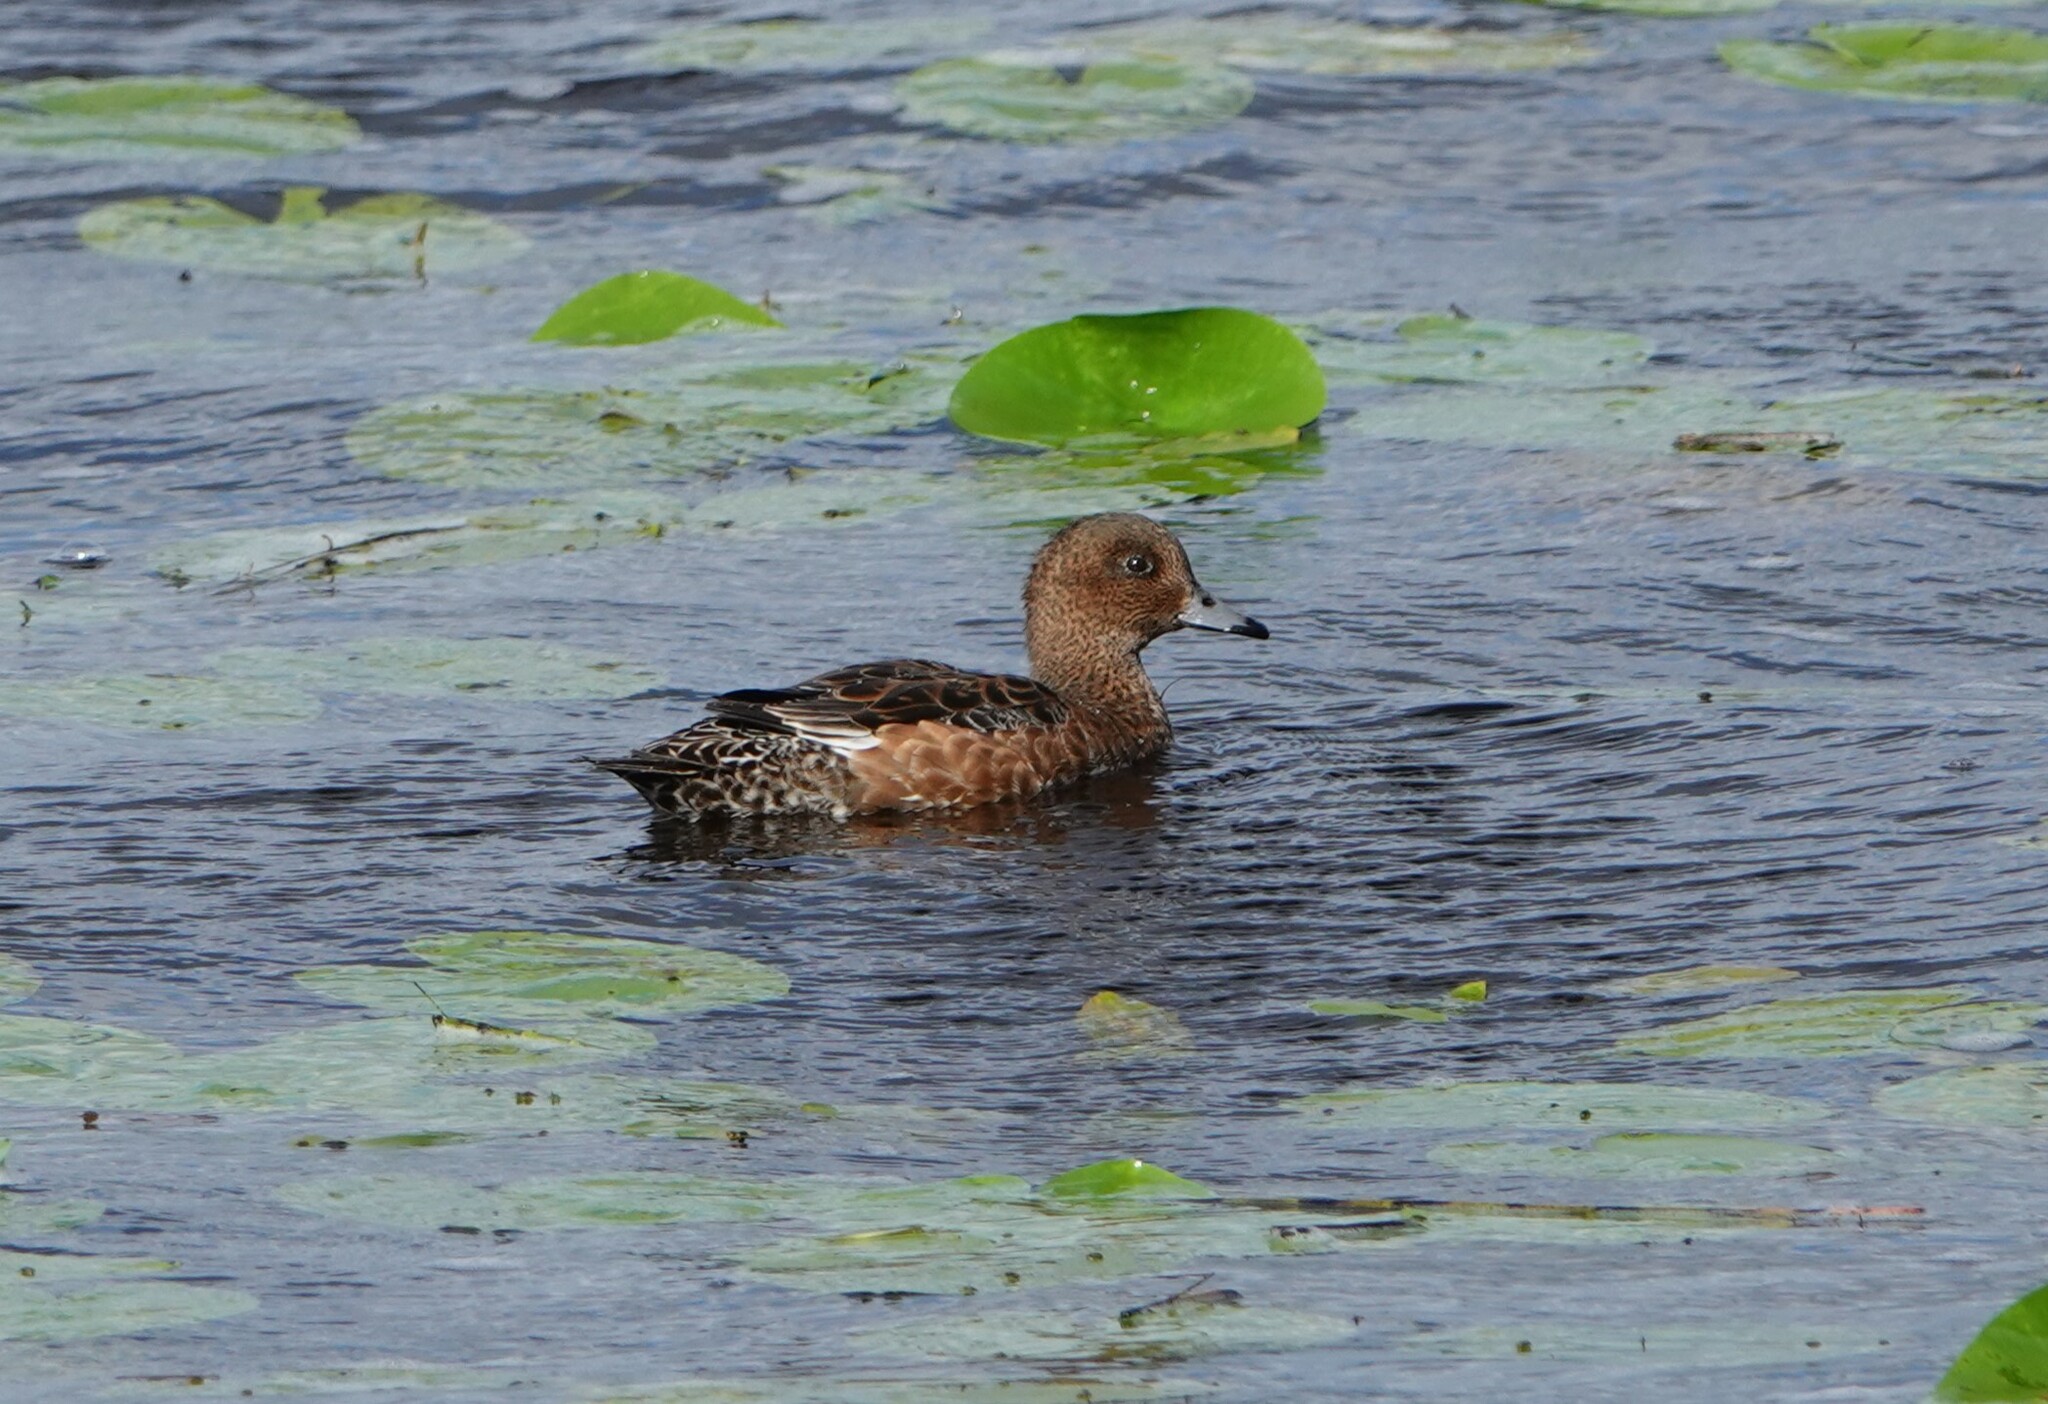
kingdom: Animalia
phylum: Chordata
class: Aves
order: Anseriformes
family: Anatidae
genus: Mareca
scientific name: Mareca penelope
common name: Eurasian wigeon
